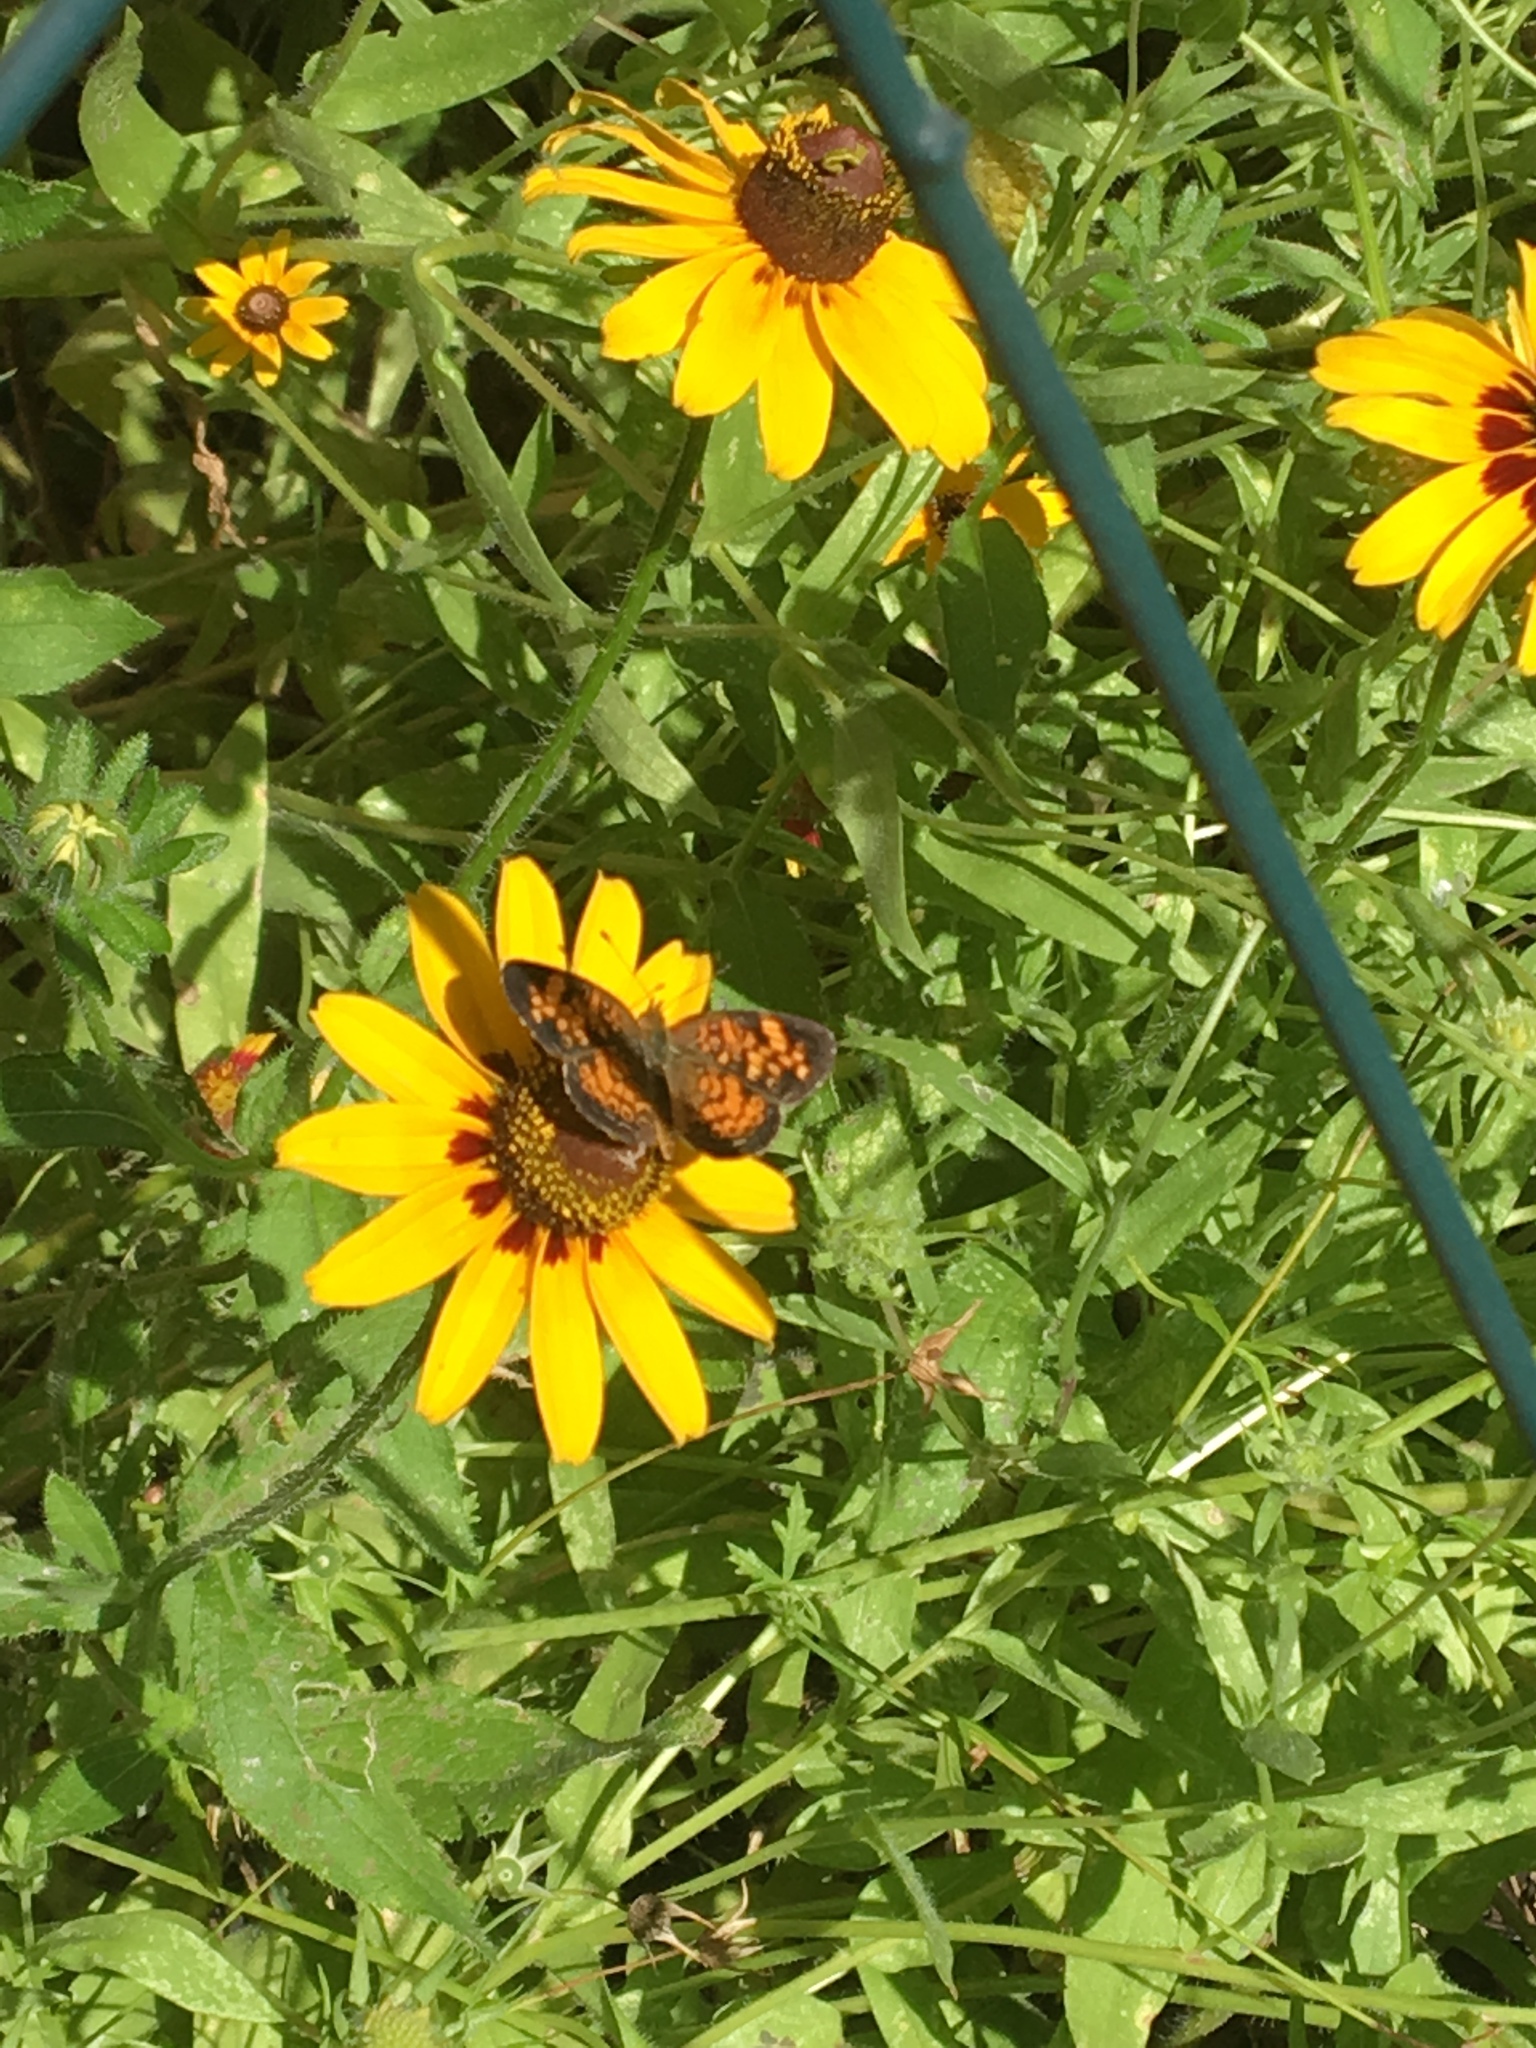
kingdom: Animalia
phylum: Arthropoda
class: Insecta
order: Lepidoptera
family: Nymphalidae
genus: Phyciodes
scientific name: Phyciodes tharos
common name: Pearl crescent
